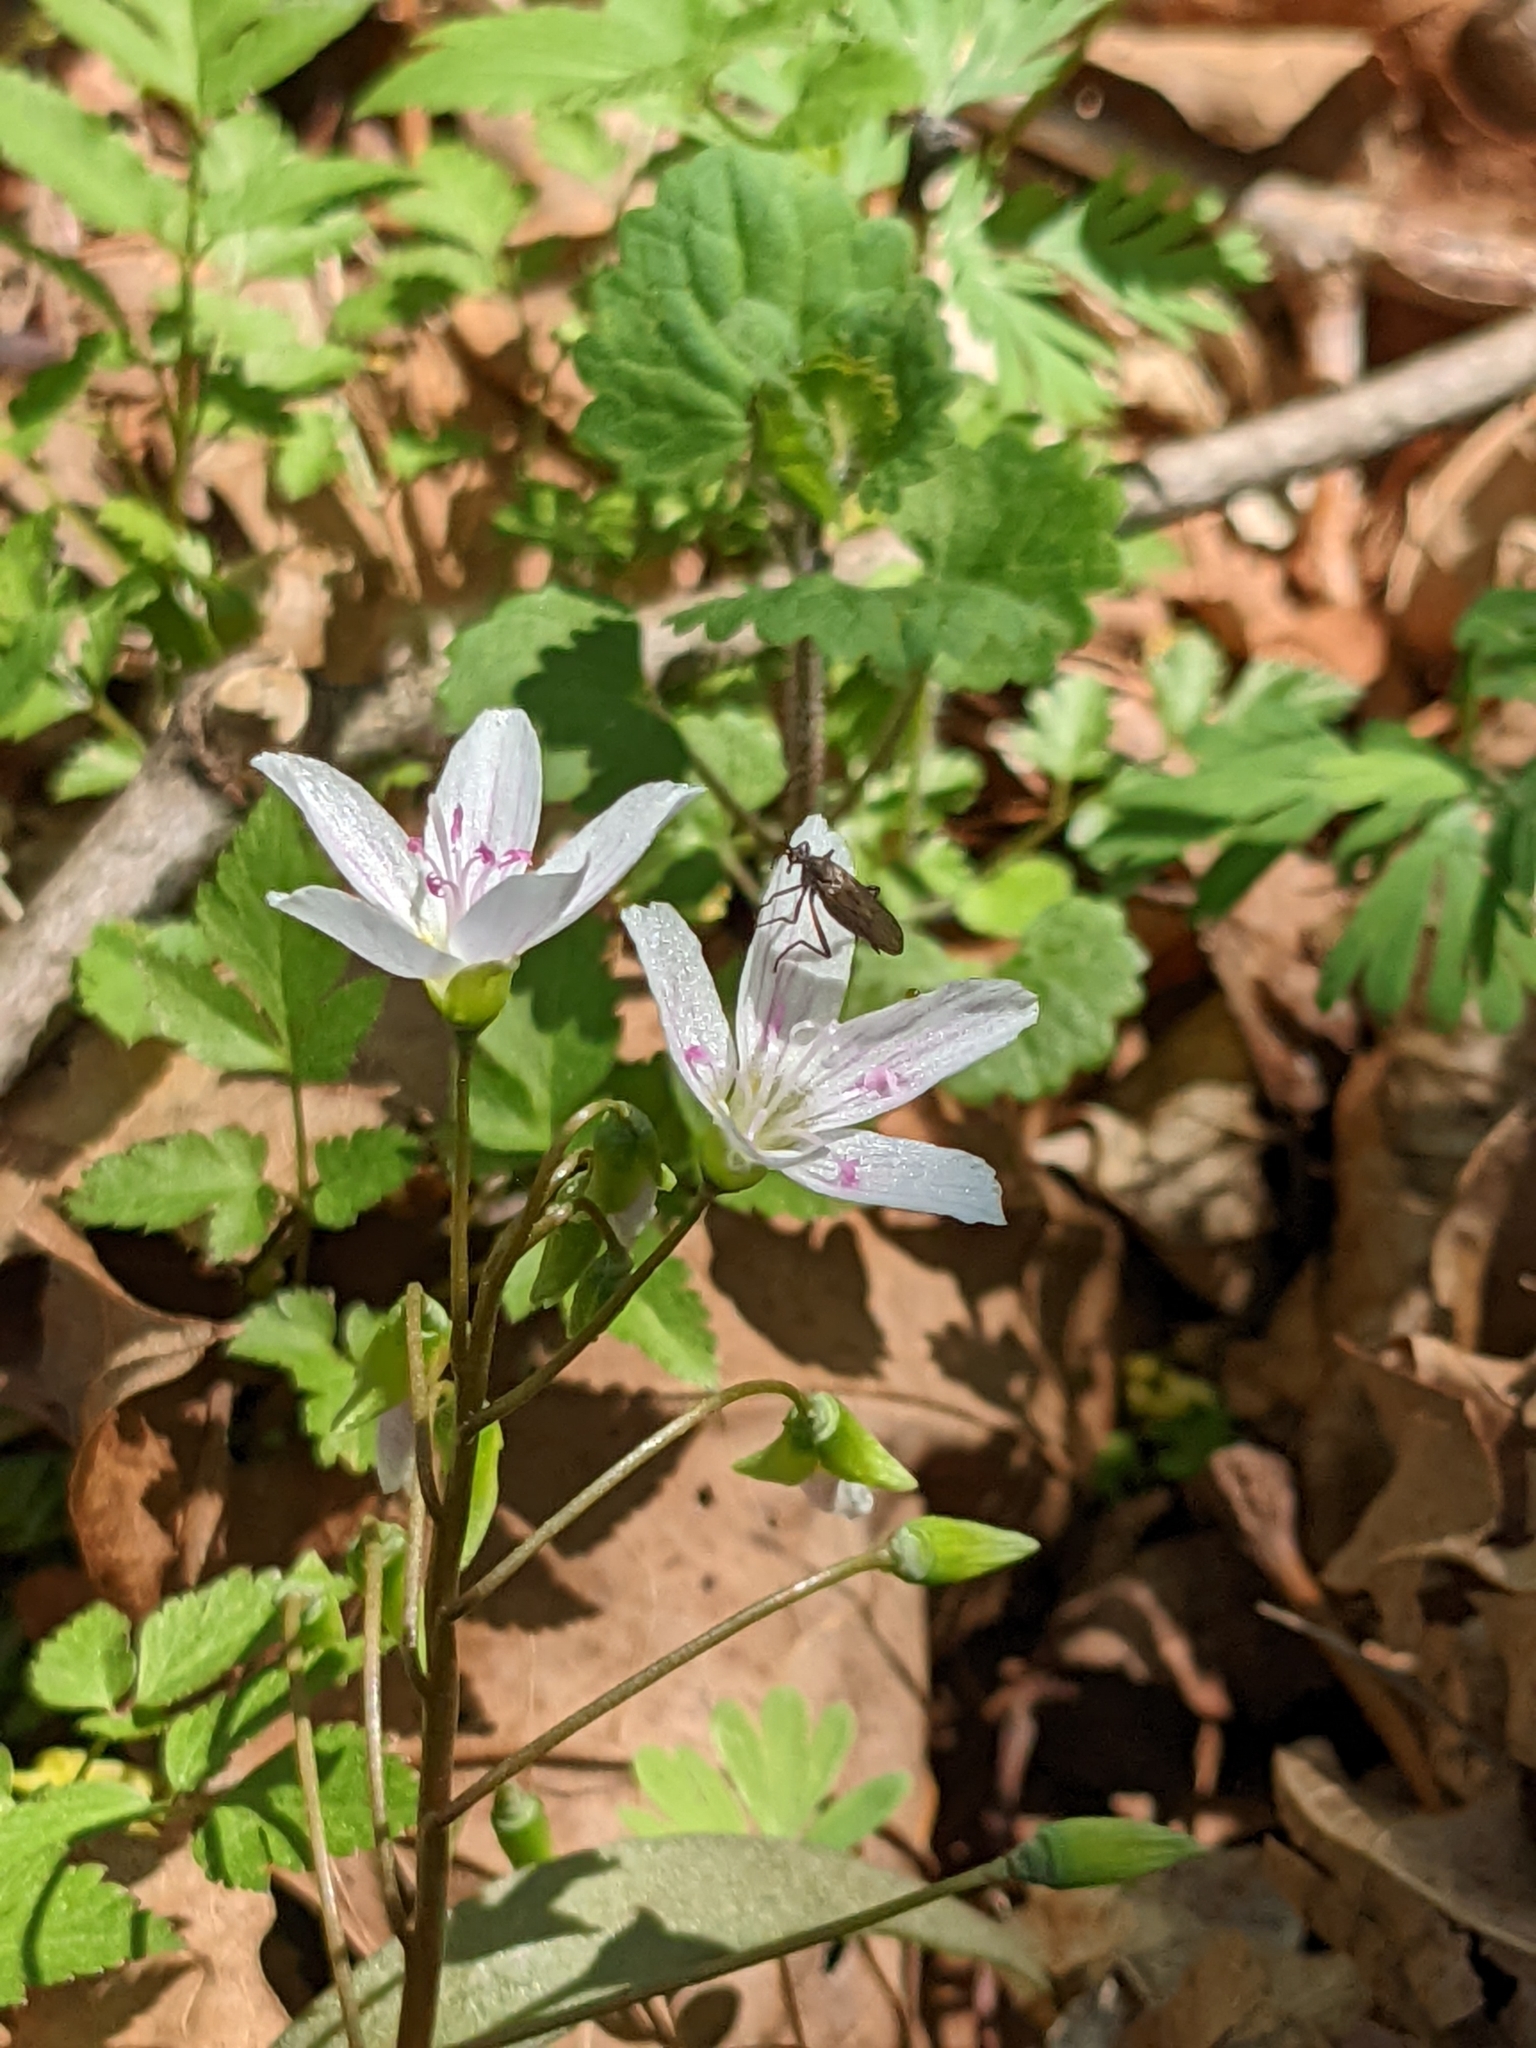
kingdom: Plantae
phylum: Tracheophyta
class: Magnoliopsida
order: Caryophyllales
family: Montiaceae
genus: Claytonia
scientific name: Claytonia virginica
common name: Virginia springbeauty
